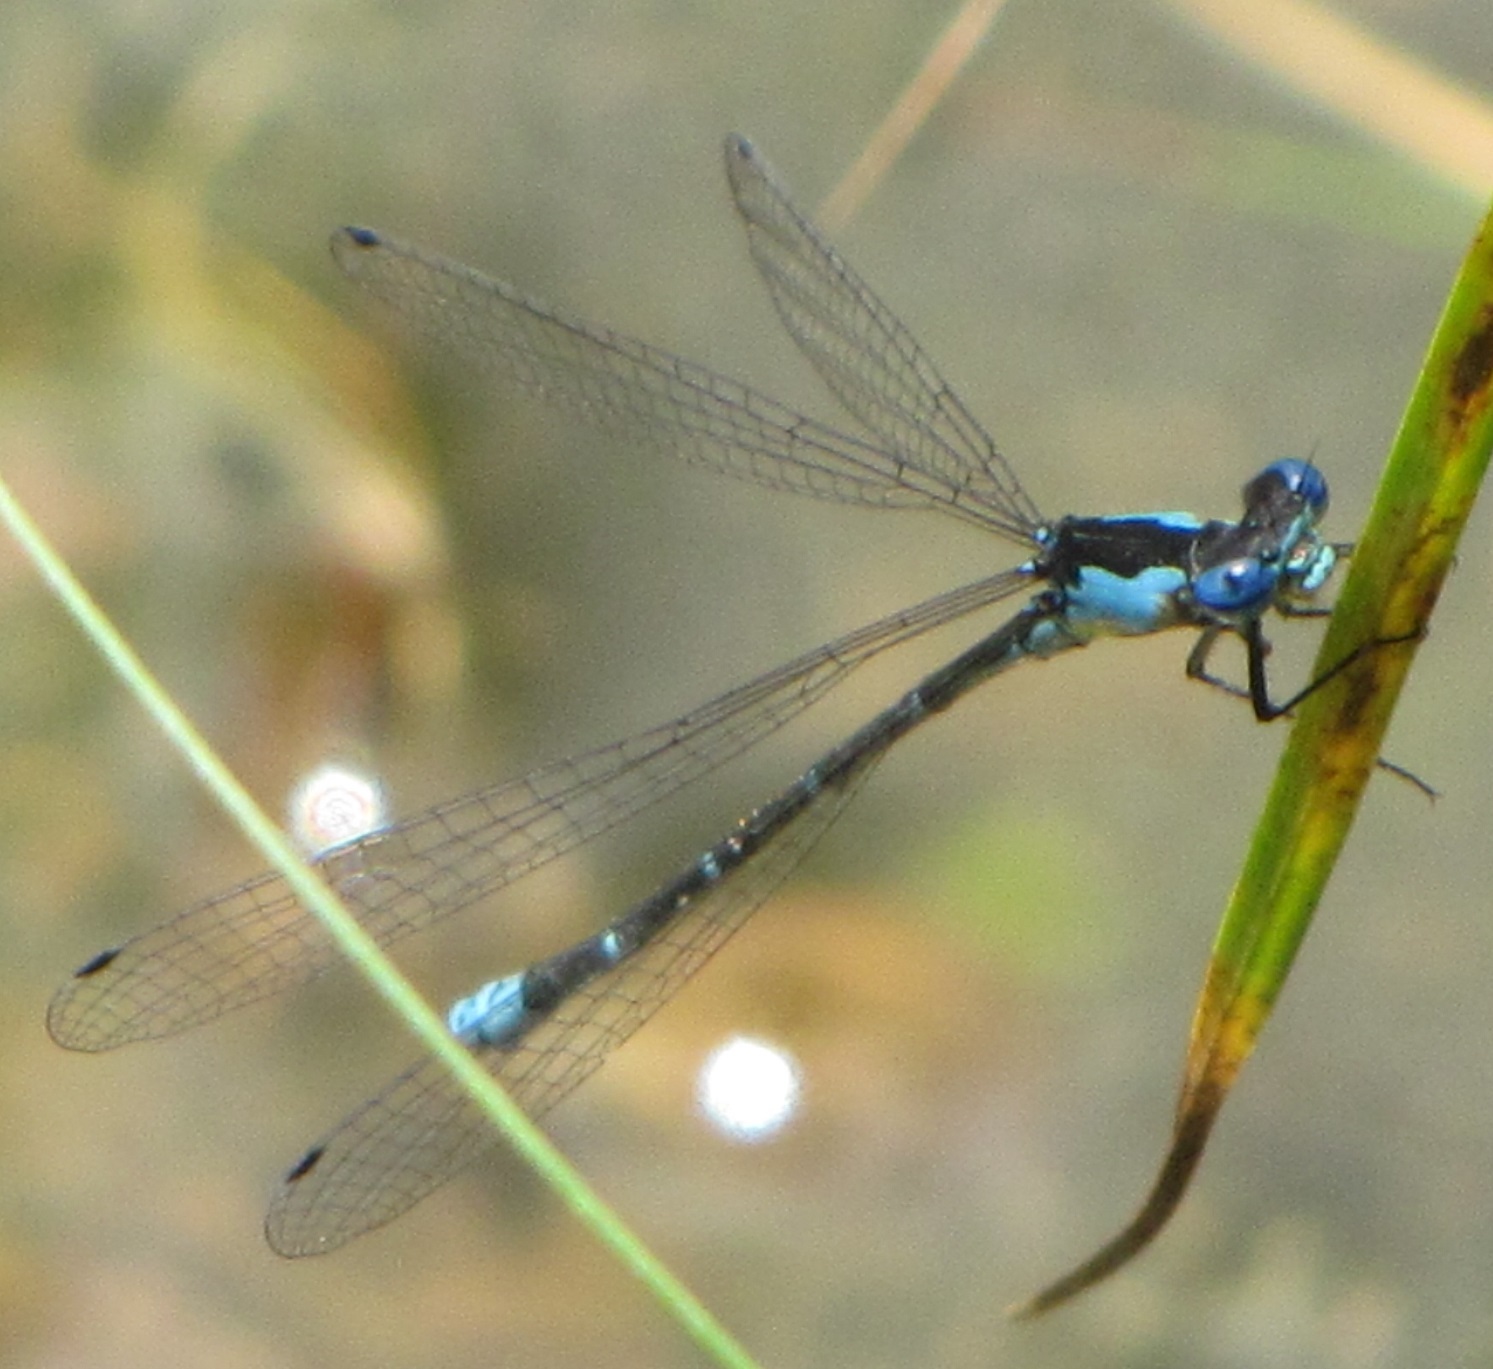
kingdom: Animalia
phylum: Arthropoda
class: Insecta
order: Odonata
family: Coenagrionidae
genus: Chromagrion
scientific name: Chromagrion conditum
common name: Aurora damsel
